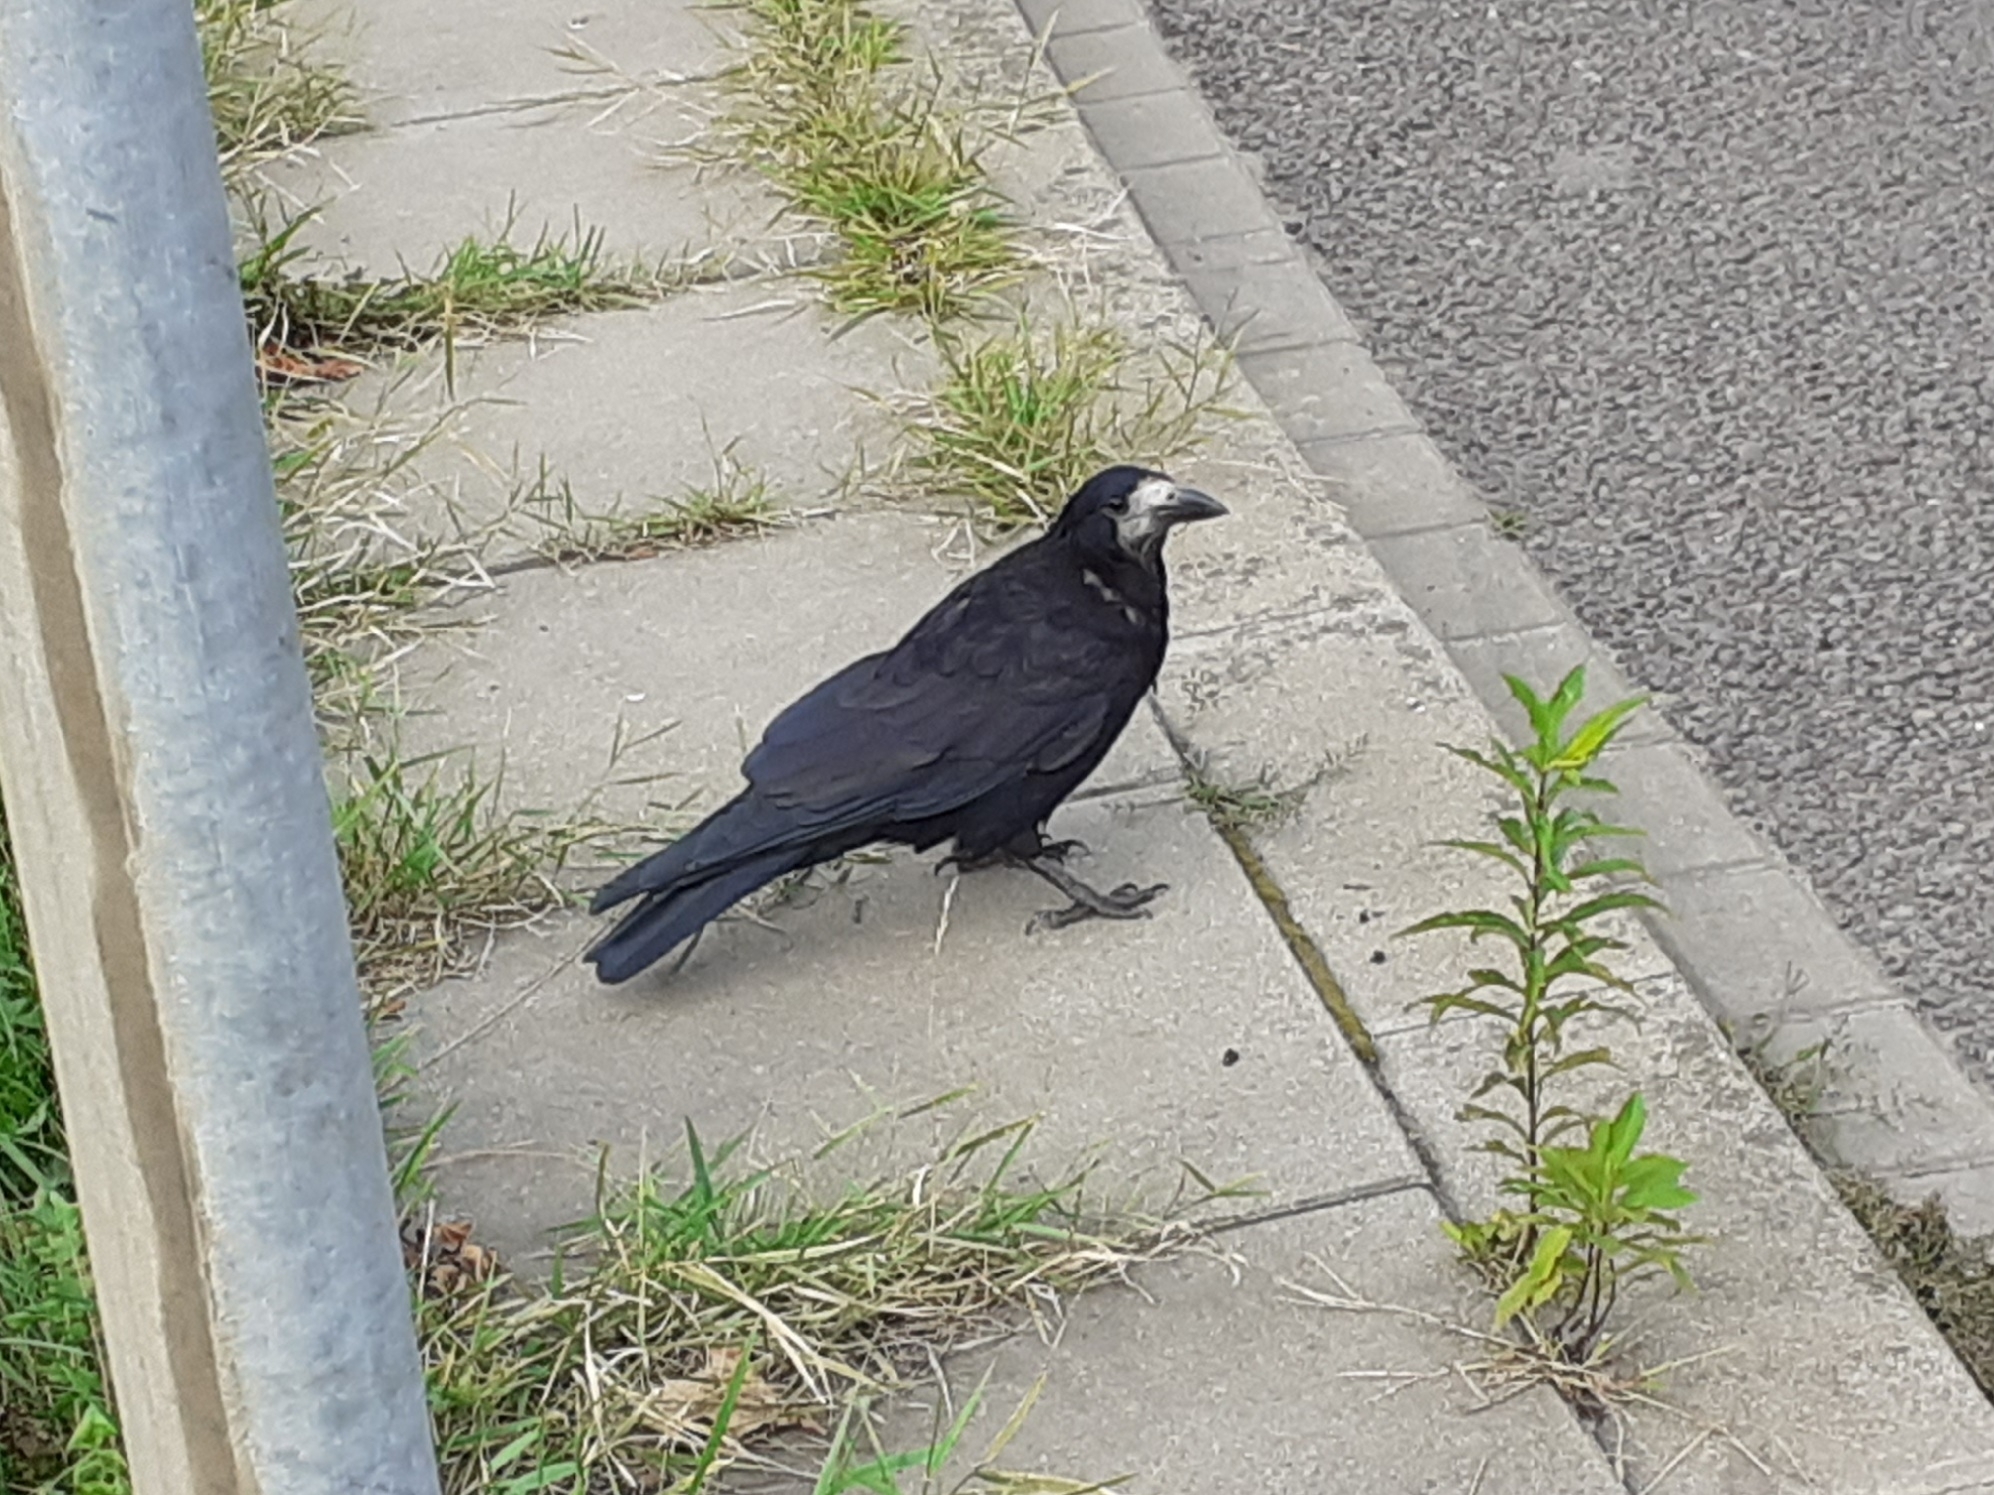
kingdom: Animalia
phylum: Chordata
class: Aves
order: Passeriformes
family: Corvidae
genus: Corvus
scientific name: Corvus frugilegus
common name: Rook
